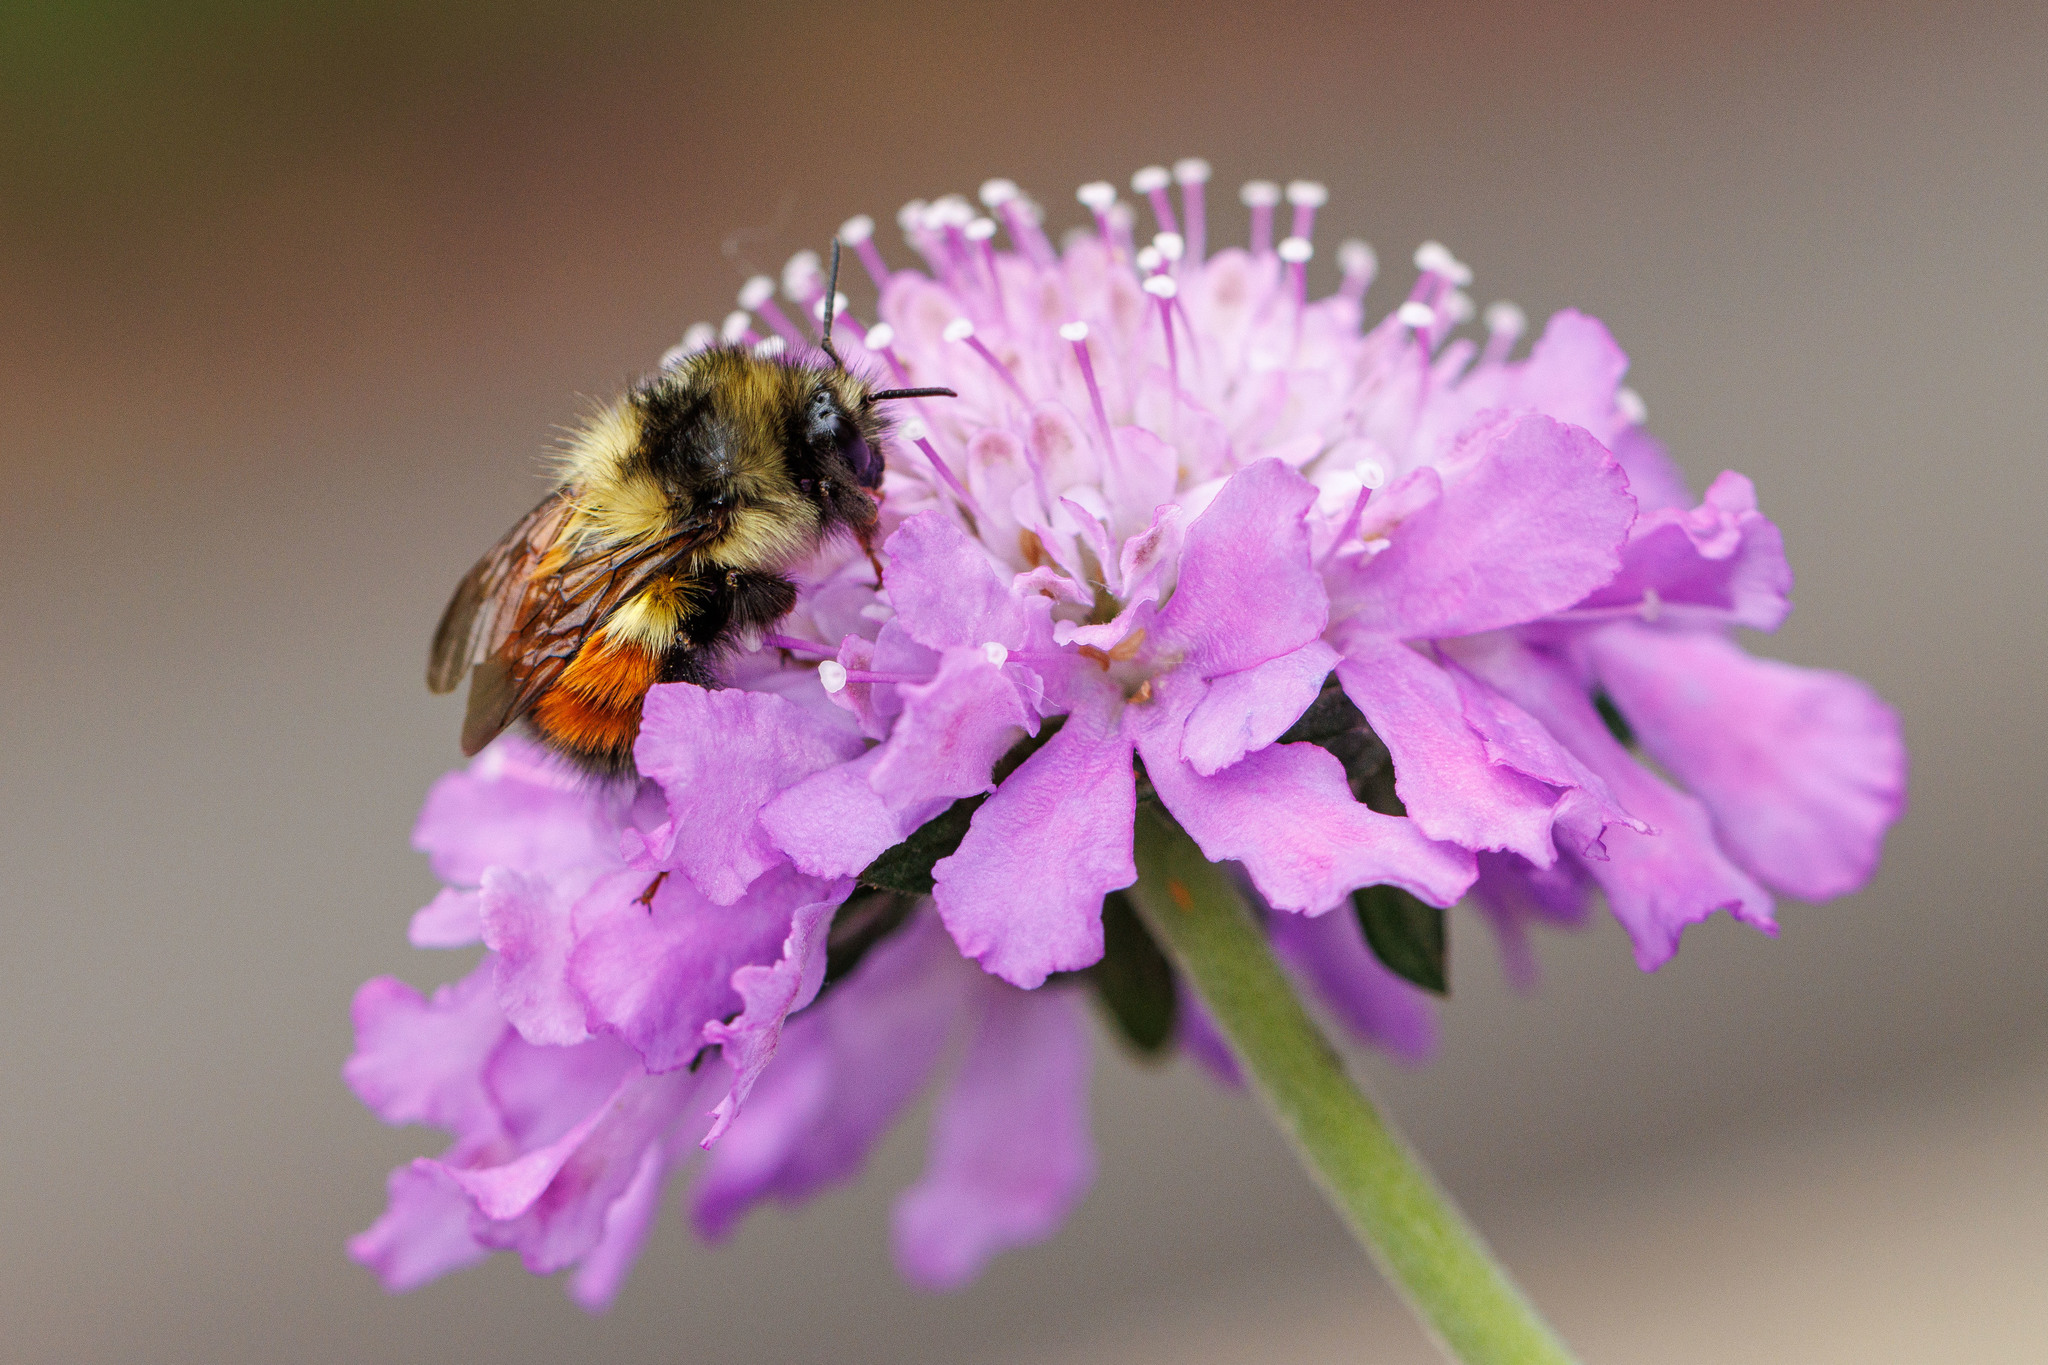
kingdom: Animalia
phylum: Arthropoda
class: Insecta
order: Hymenoptera
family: Apidae
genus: Bombus
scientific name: Bombus melanopygus
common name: Black tail bumble bee
